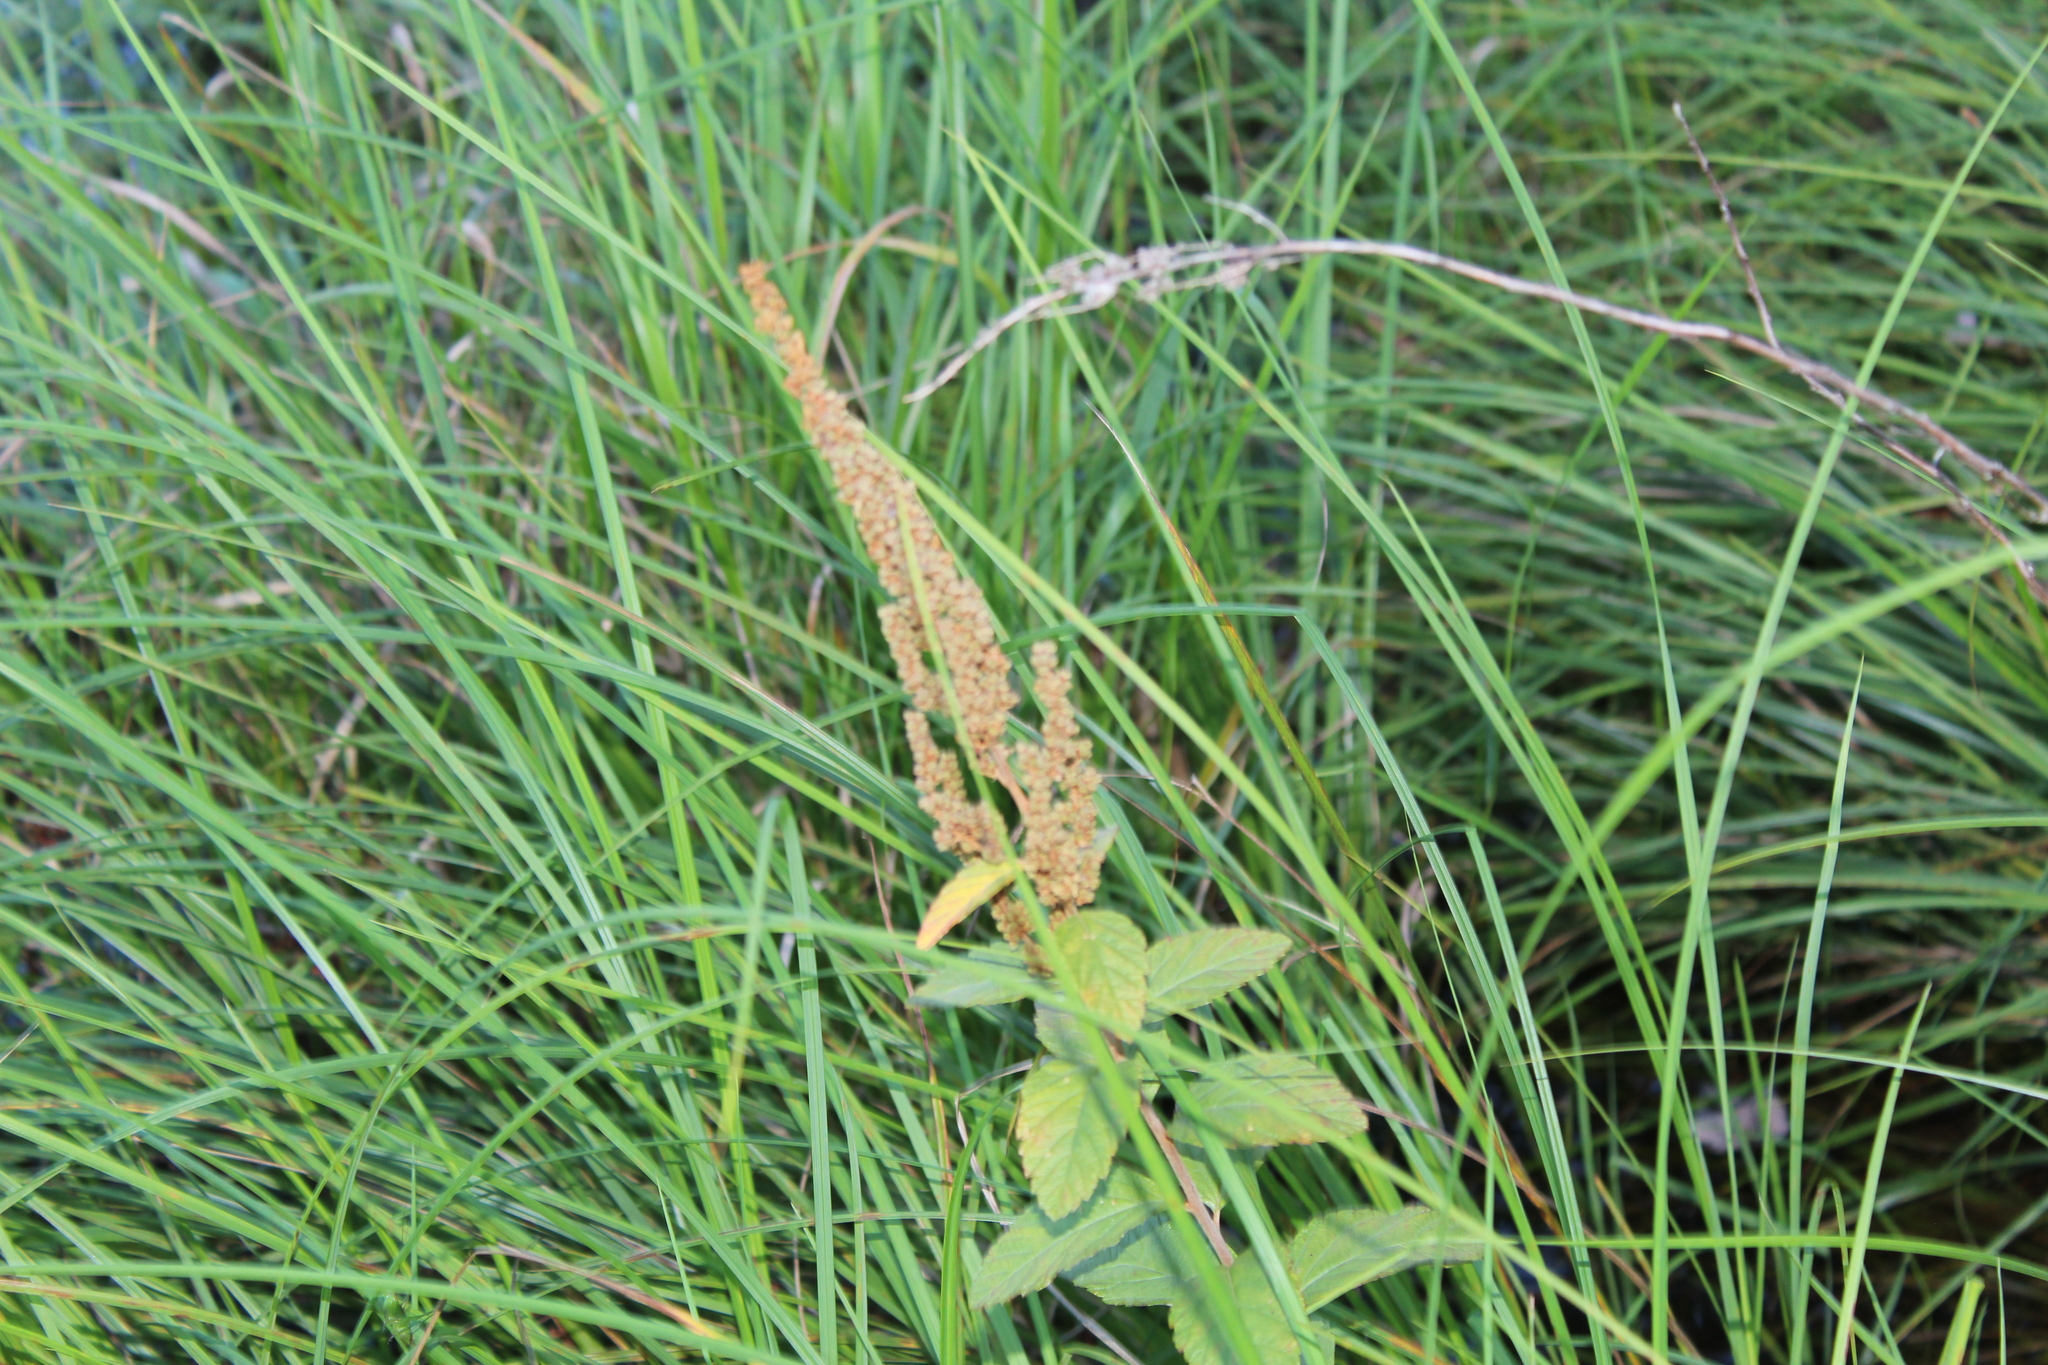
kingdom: Plantae
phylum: Tracheophyta
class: Magnoliopsida
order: Rosales
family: Rosaceae
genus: Spiraea
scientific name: Spiraea tomentosa
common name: Hardhack
